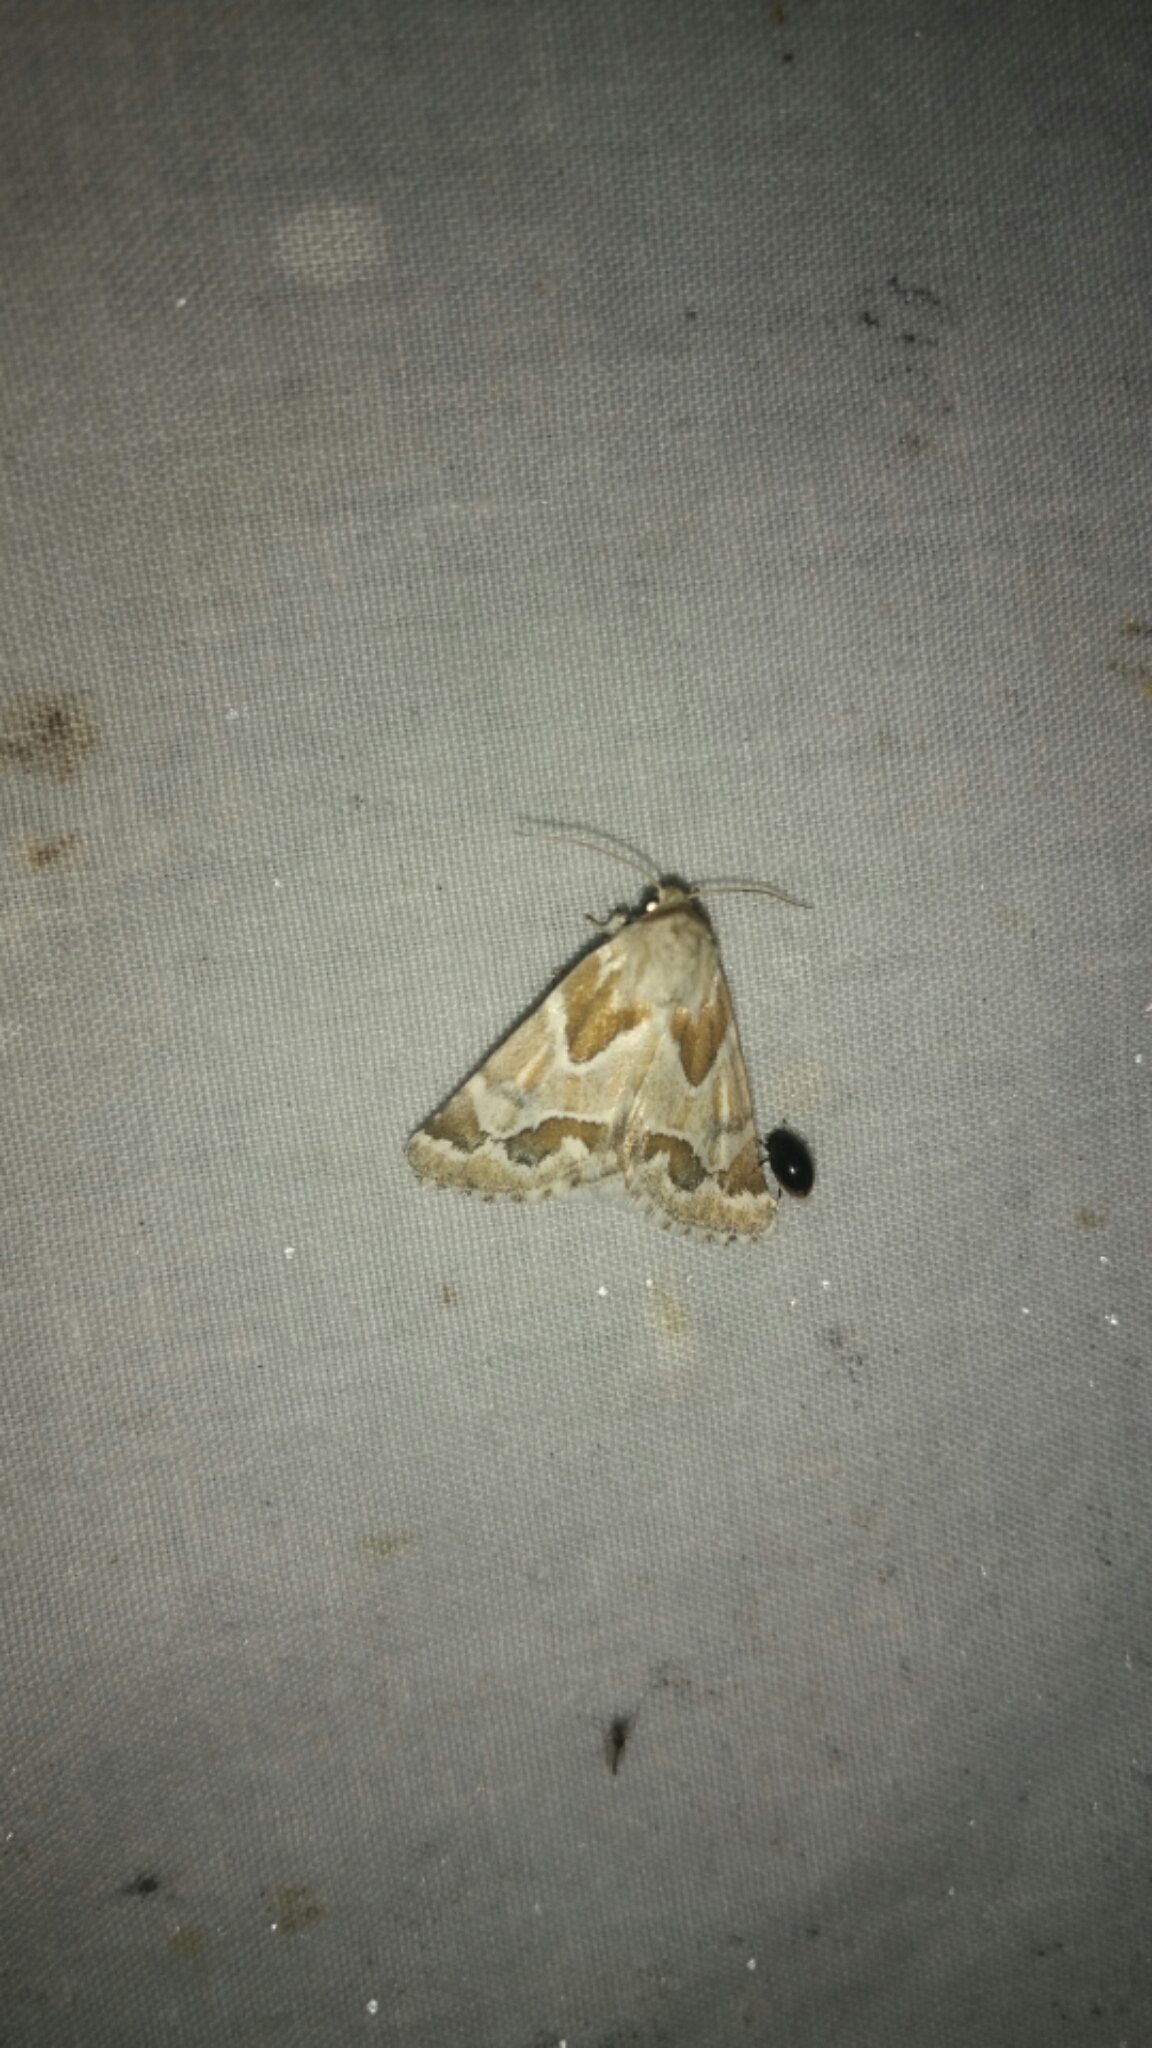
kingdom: Animalia
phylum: Arthropoda
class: Insecta
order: Lepidoptera
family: Noctuidae
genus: Schinia
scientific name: Schinia acutilinea
